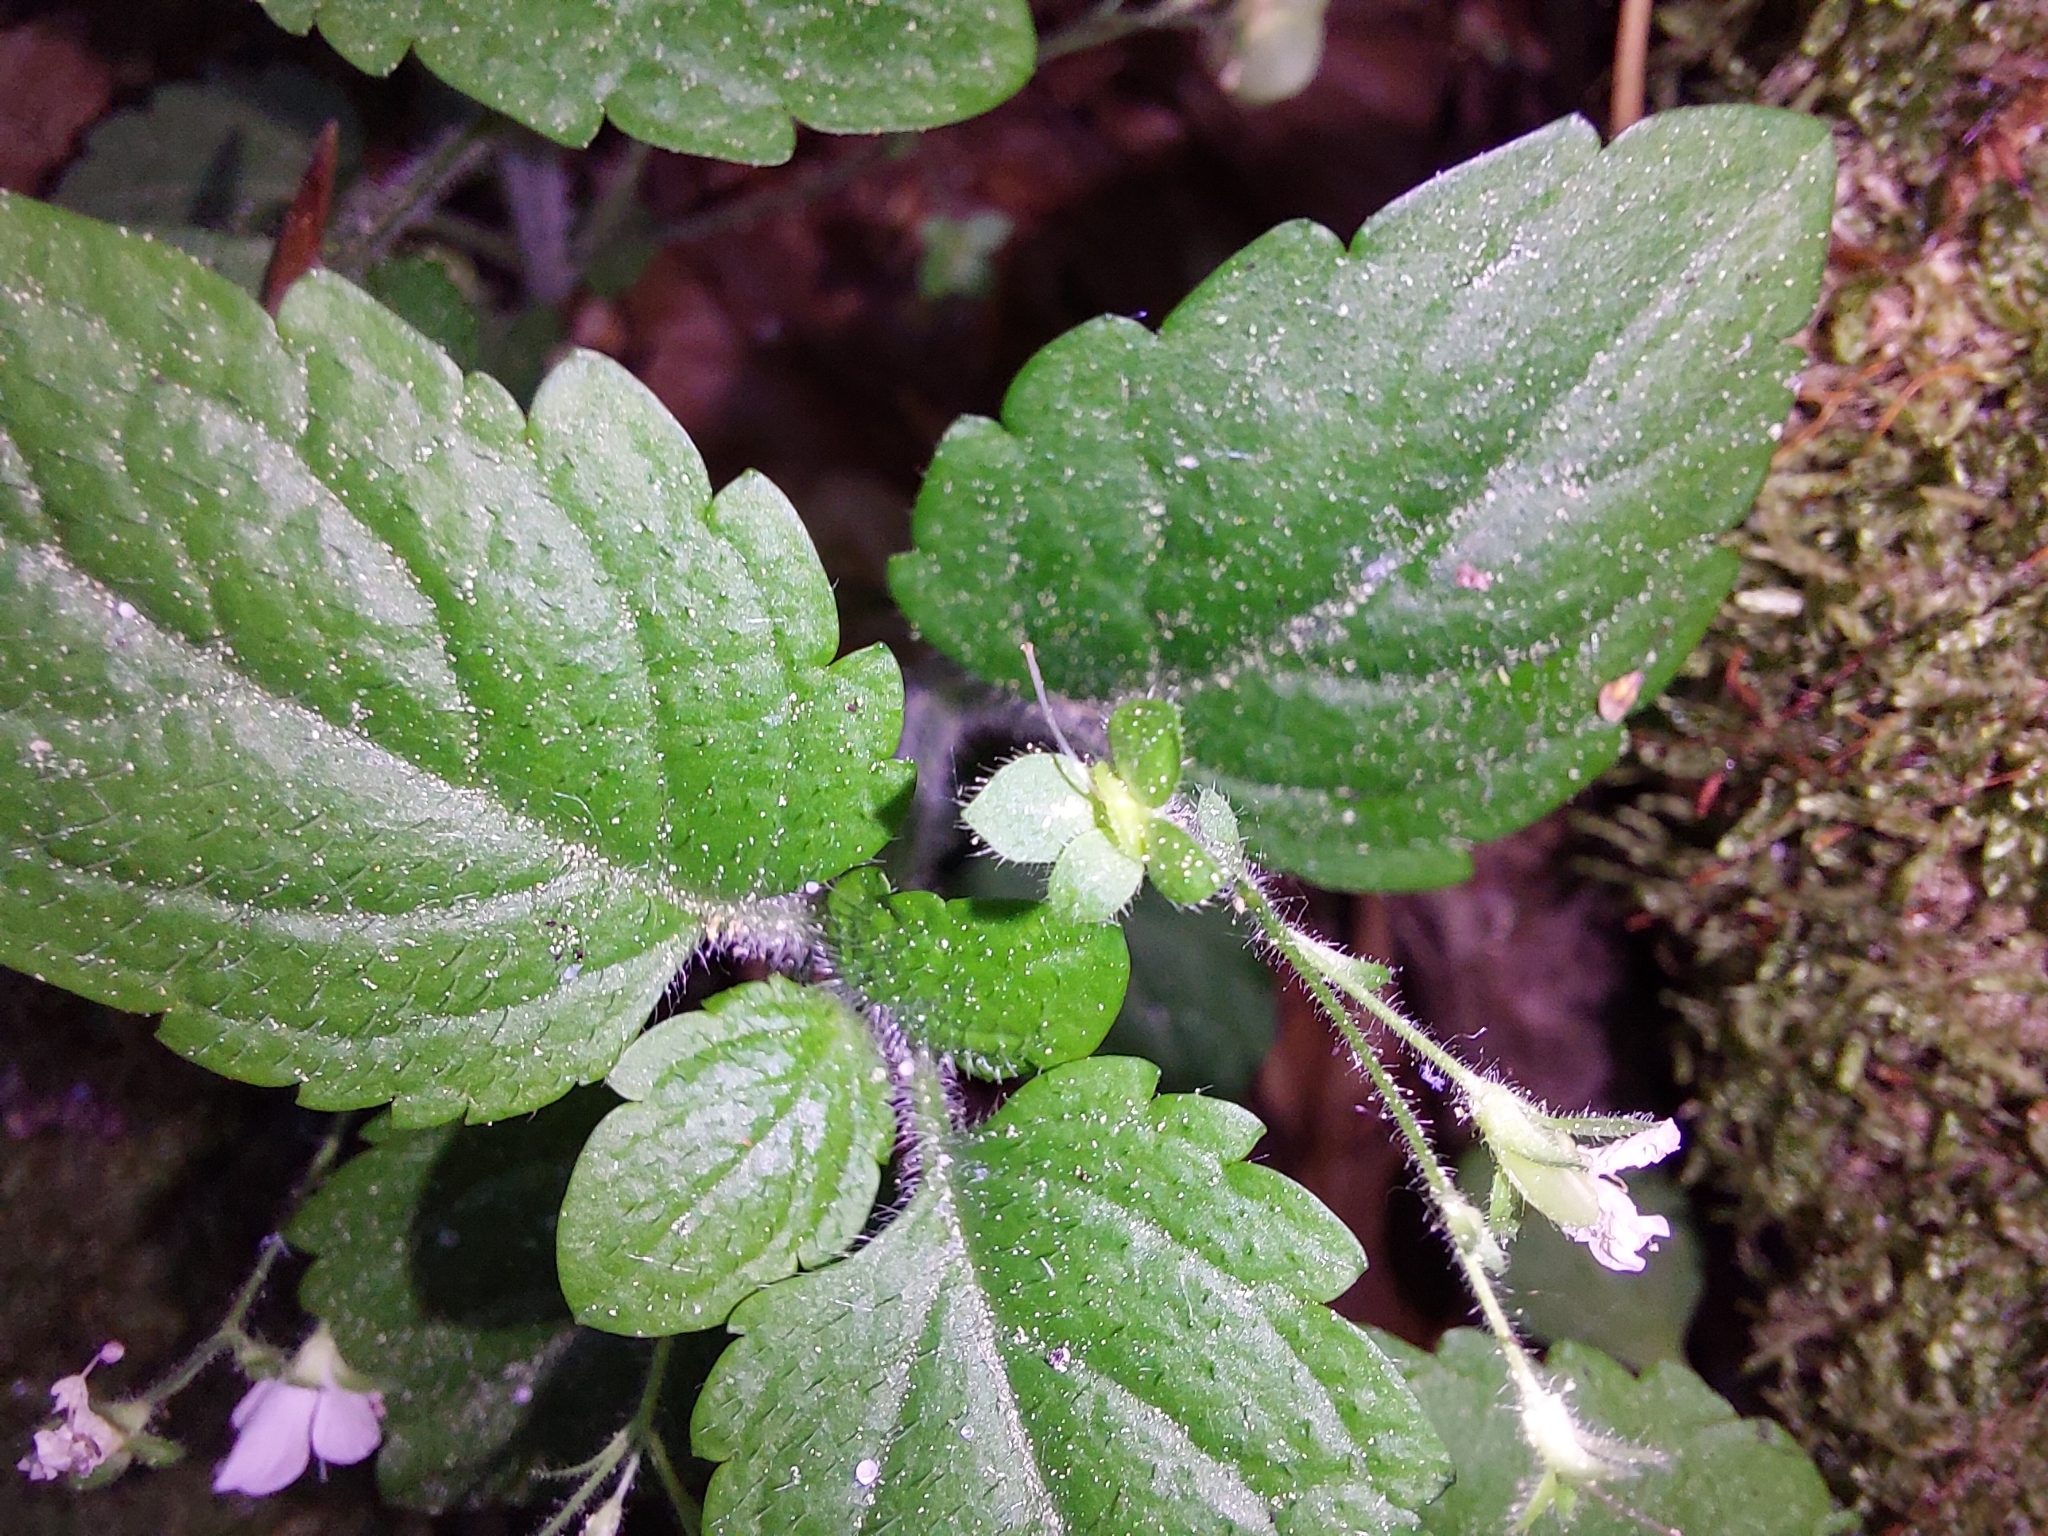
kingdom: Plantae
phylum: Tracheophyta
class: Magnoliopsida
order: Lamiales
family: Plantaginaceae
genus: Veronica
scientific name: Veronica montana
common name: Wood speedwell
